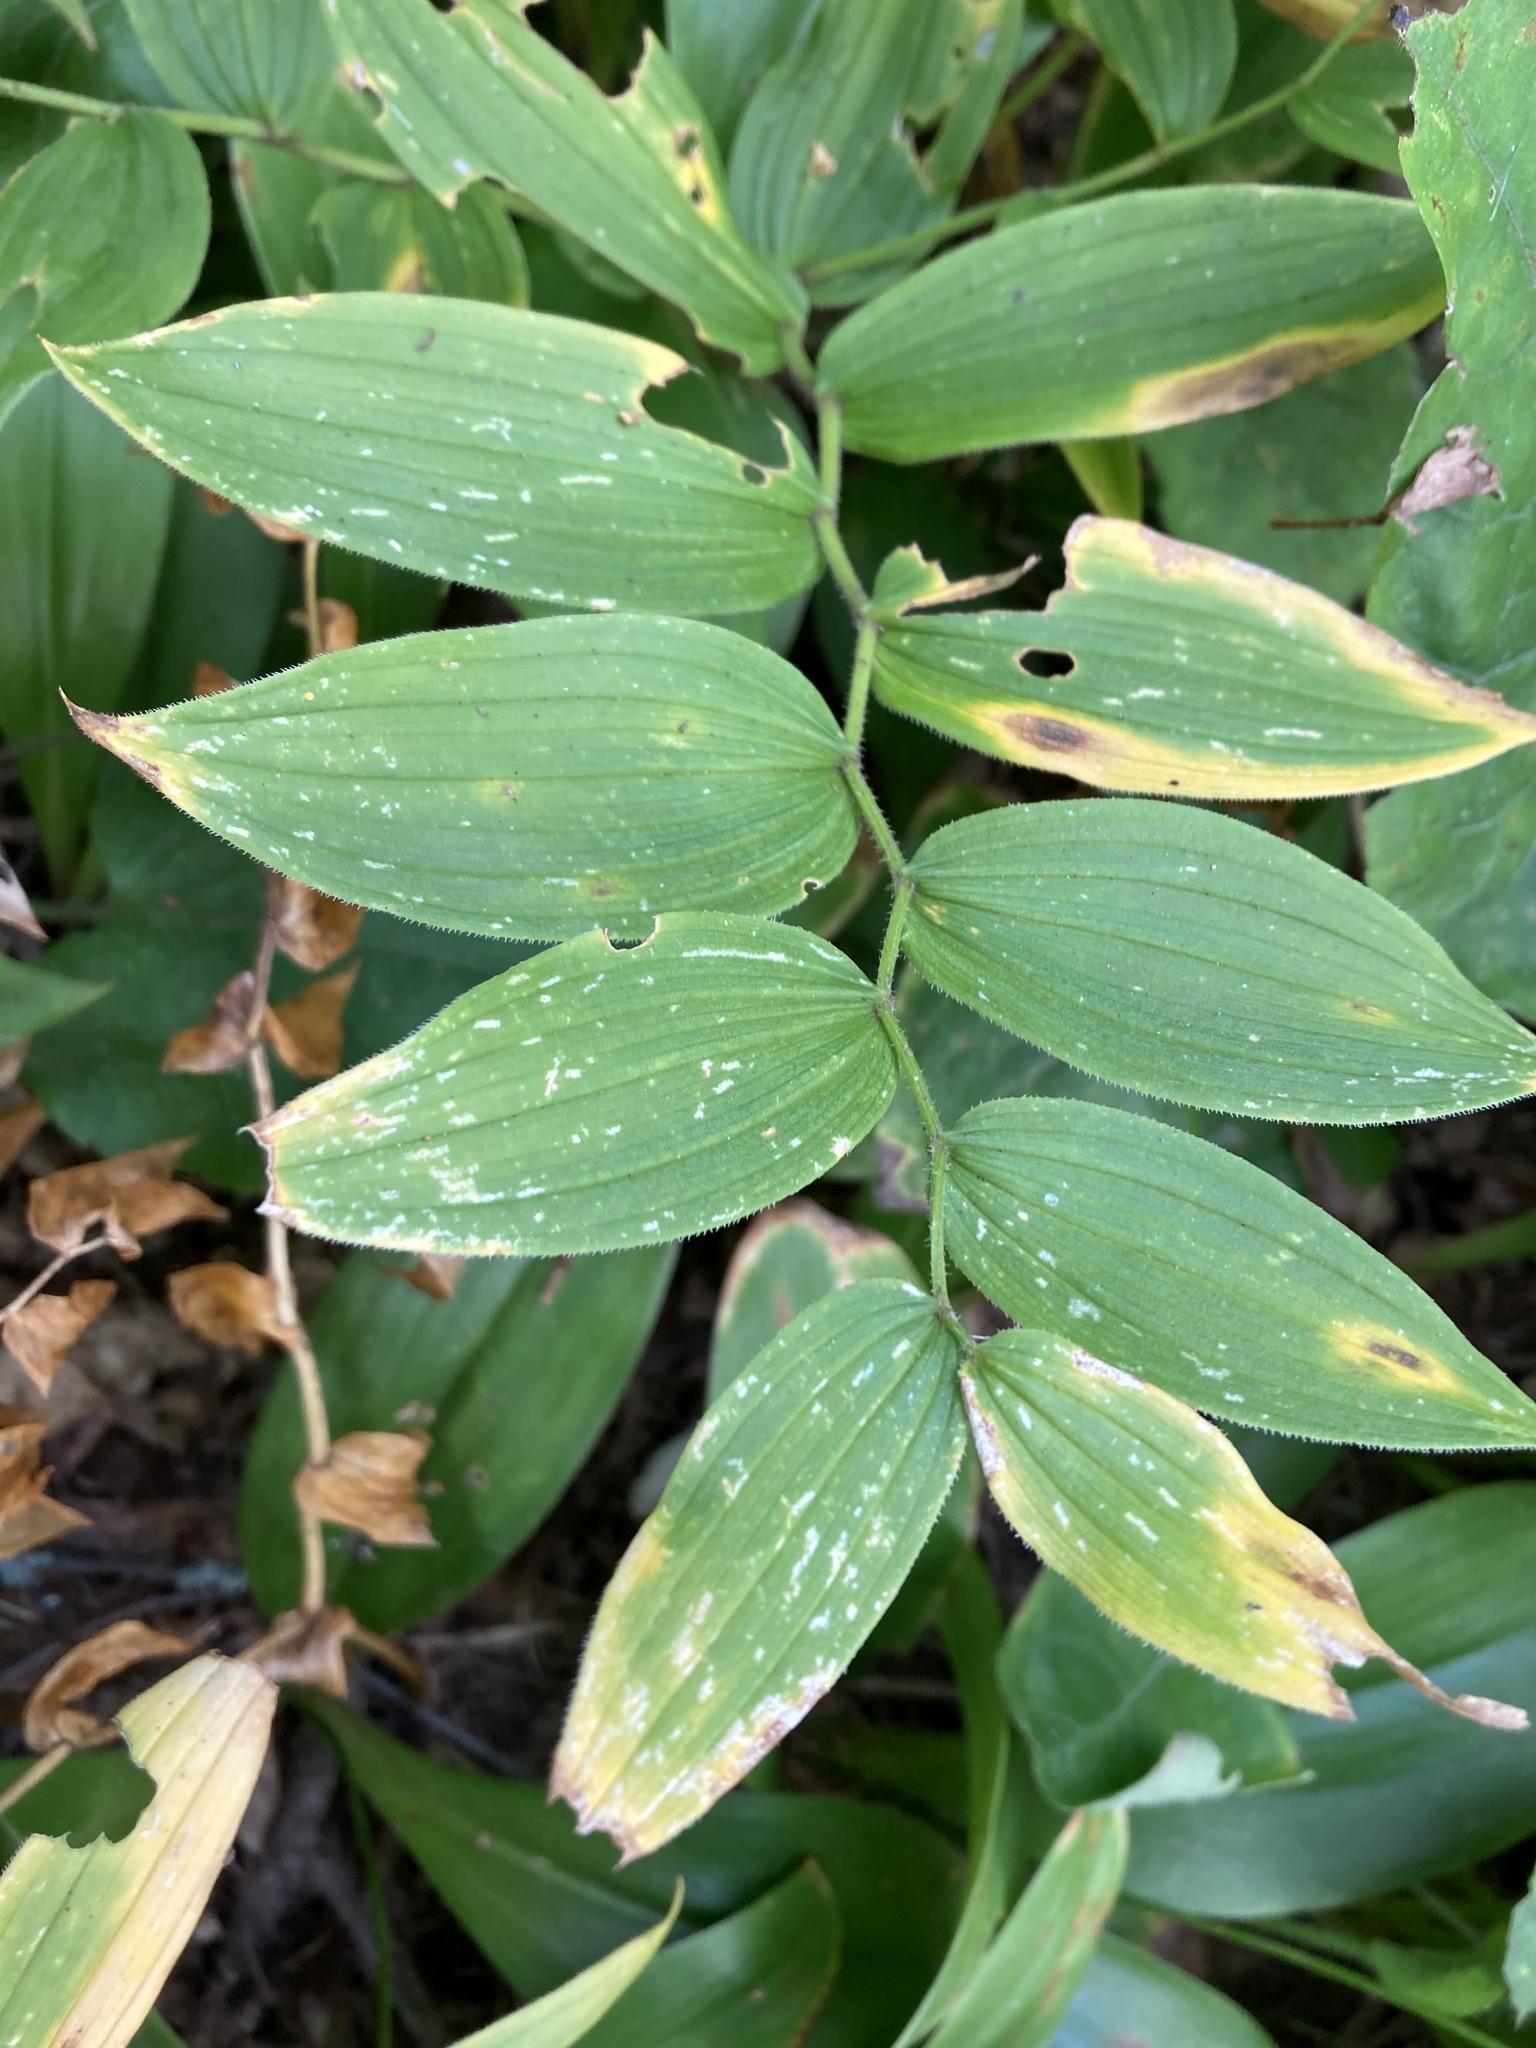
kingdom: Plantae
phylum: Tracheophyta
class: Liliopsida
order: Liliales
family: Liliaceae
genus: Streptopus
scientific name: Streptopus lanceolatus
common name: Rose mandarin
